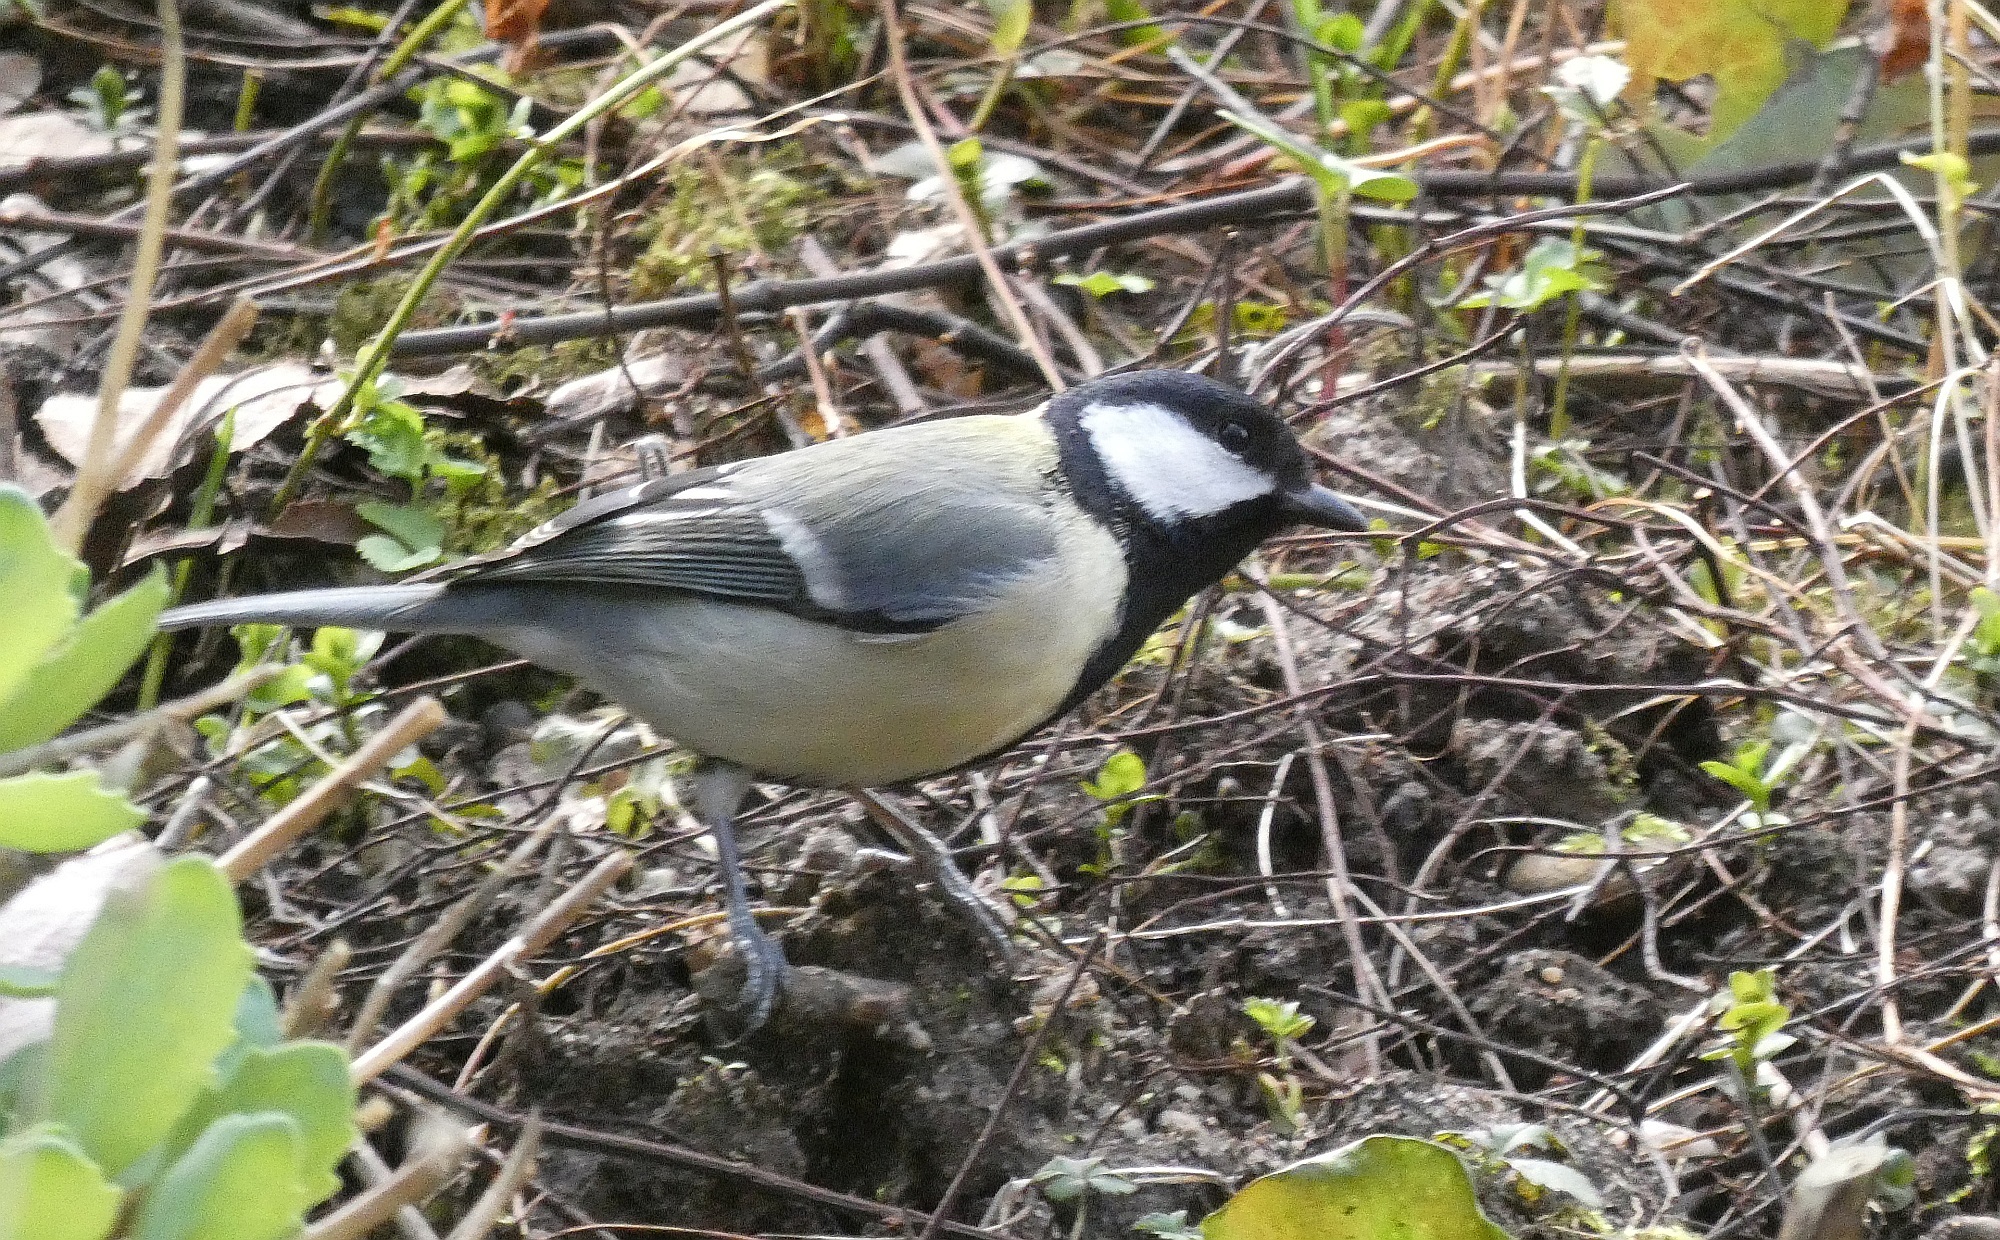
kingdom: Animalia
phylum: Chordata
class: Aves
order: Passeriformes
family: Paridae
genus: Parus
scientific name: Parus major
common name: Great tit
